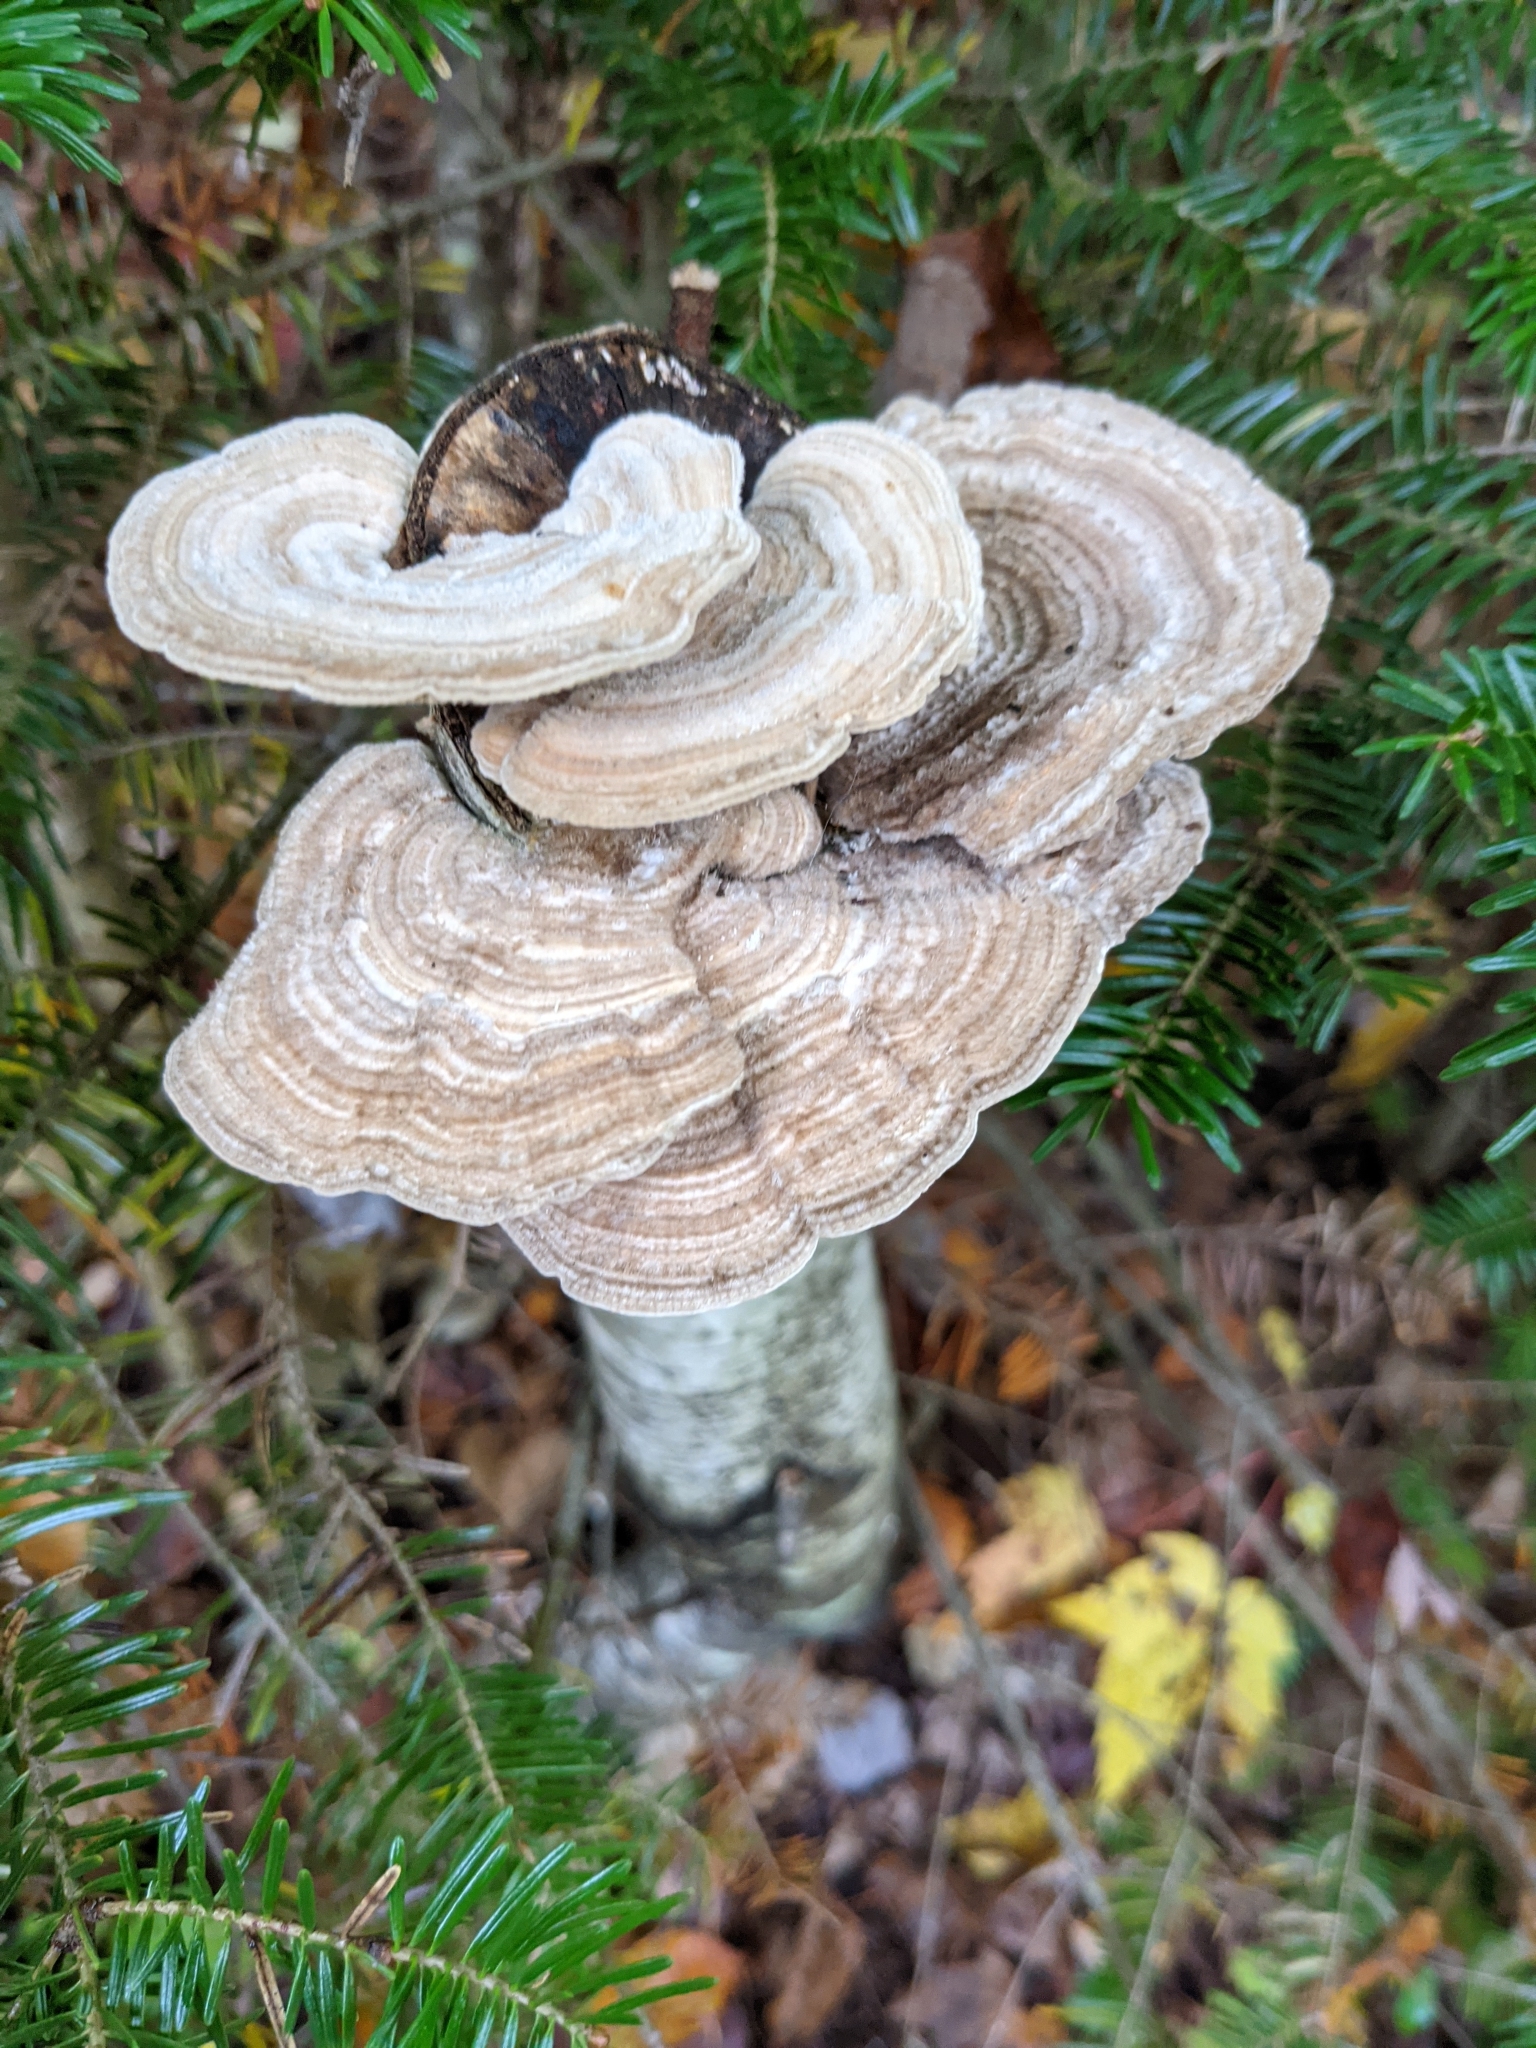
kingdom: Fungi
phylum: Basidiomycota
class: Agaricomycetes
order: Polyporales
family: Polyporaceae
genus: Lenzites
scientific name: Lenzites betulinus
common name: Birch mazegill
